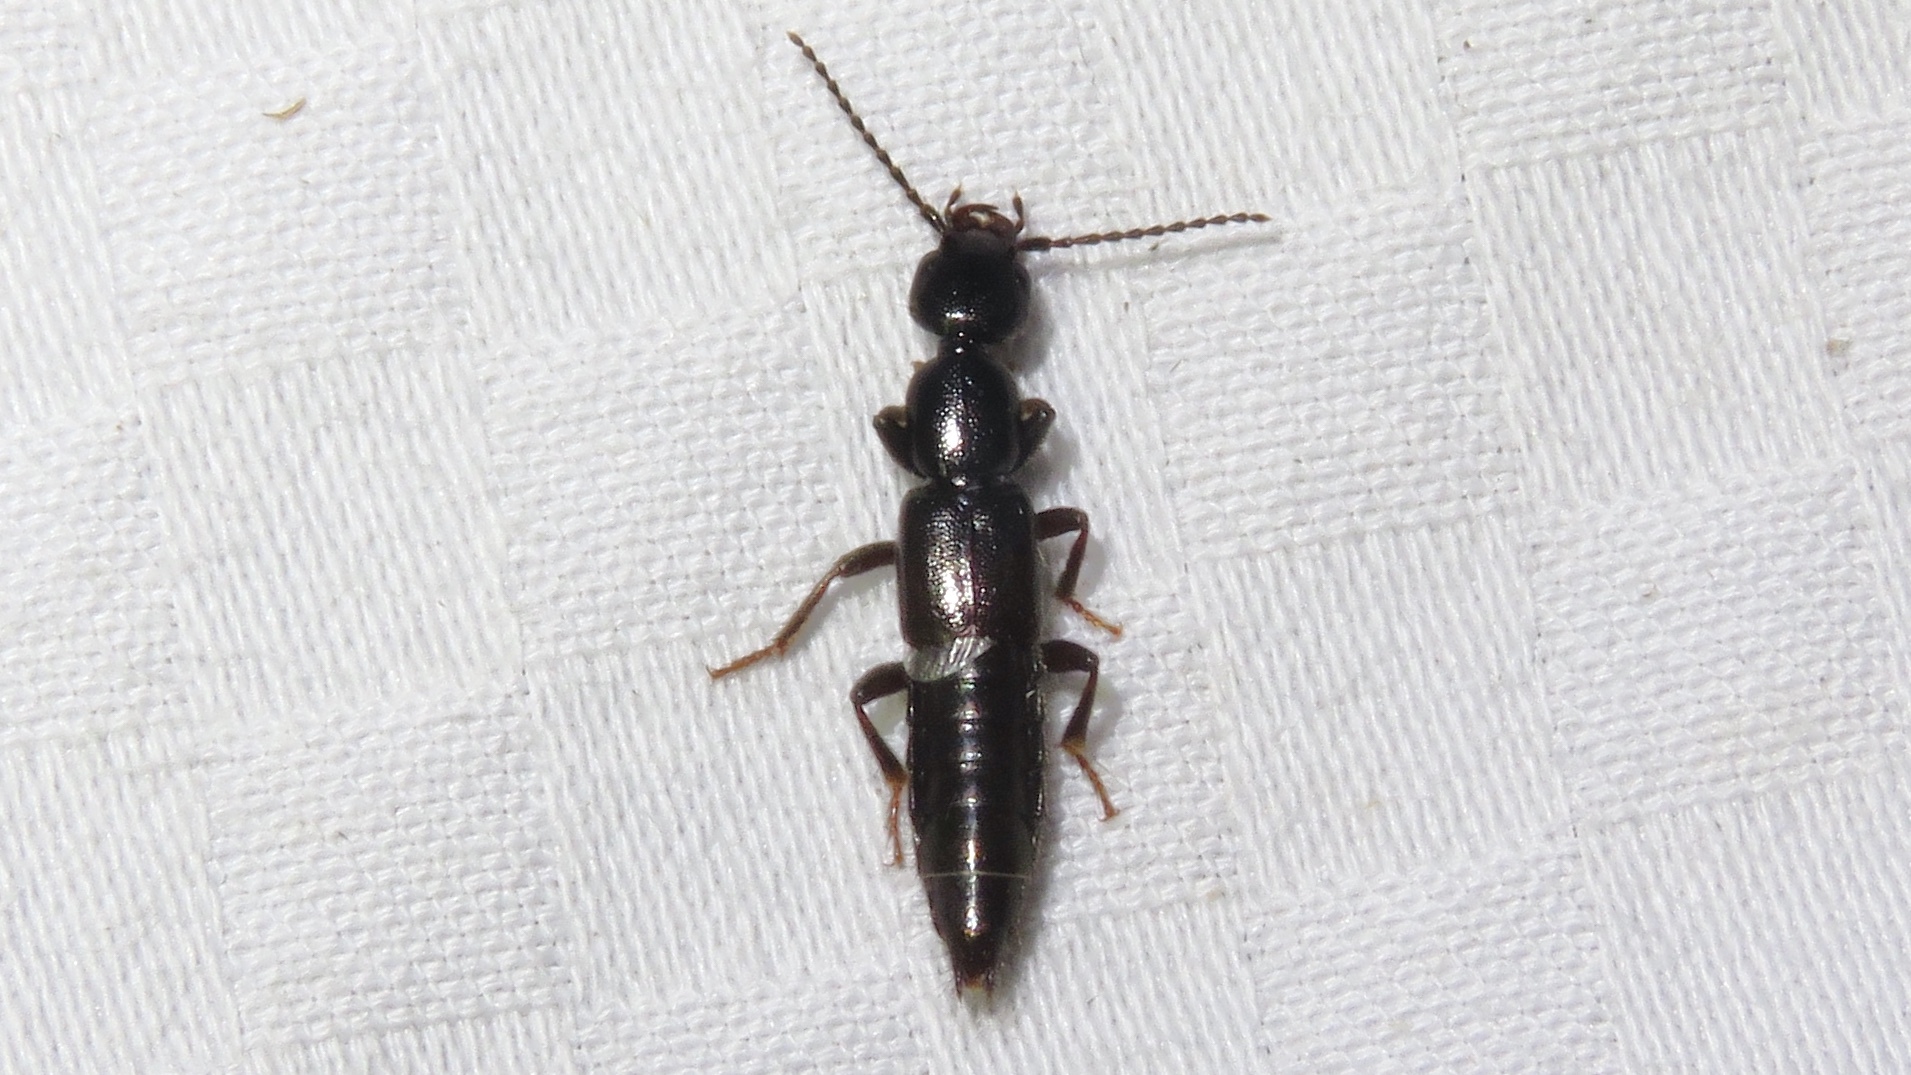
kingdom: Animalia
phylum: Arthropoda
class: Insecta
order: Coleoptera
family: Staphylinidae
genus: Lobrathium
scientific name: Lobrathium grande
